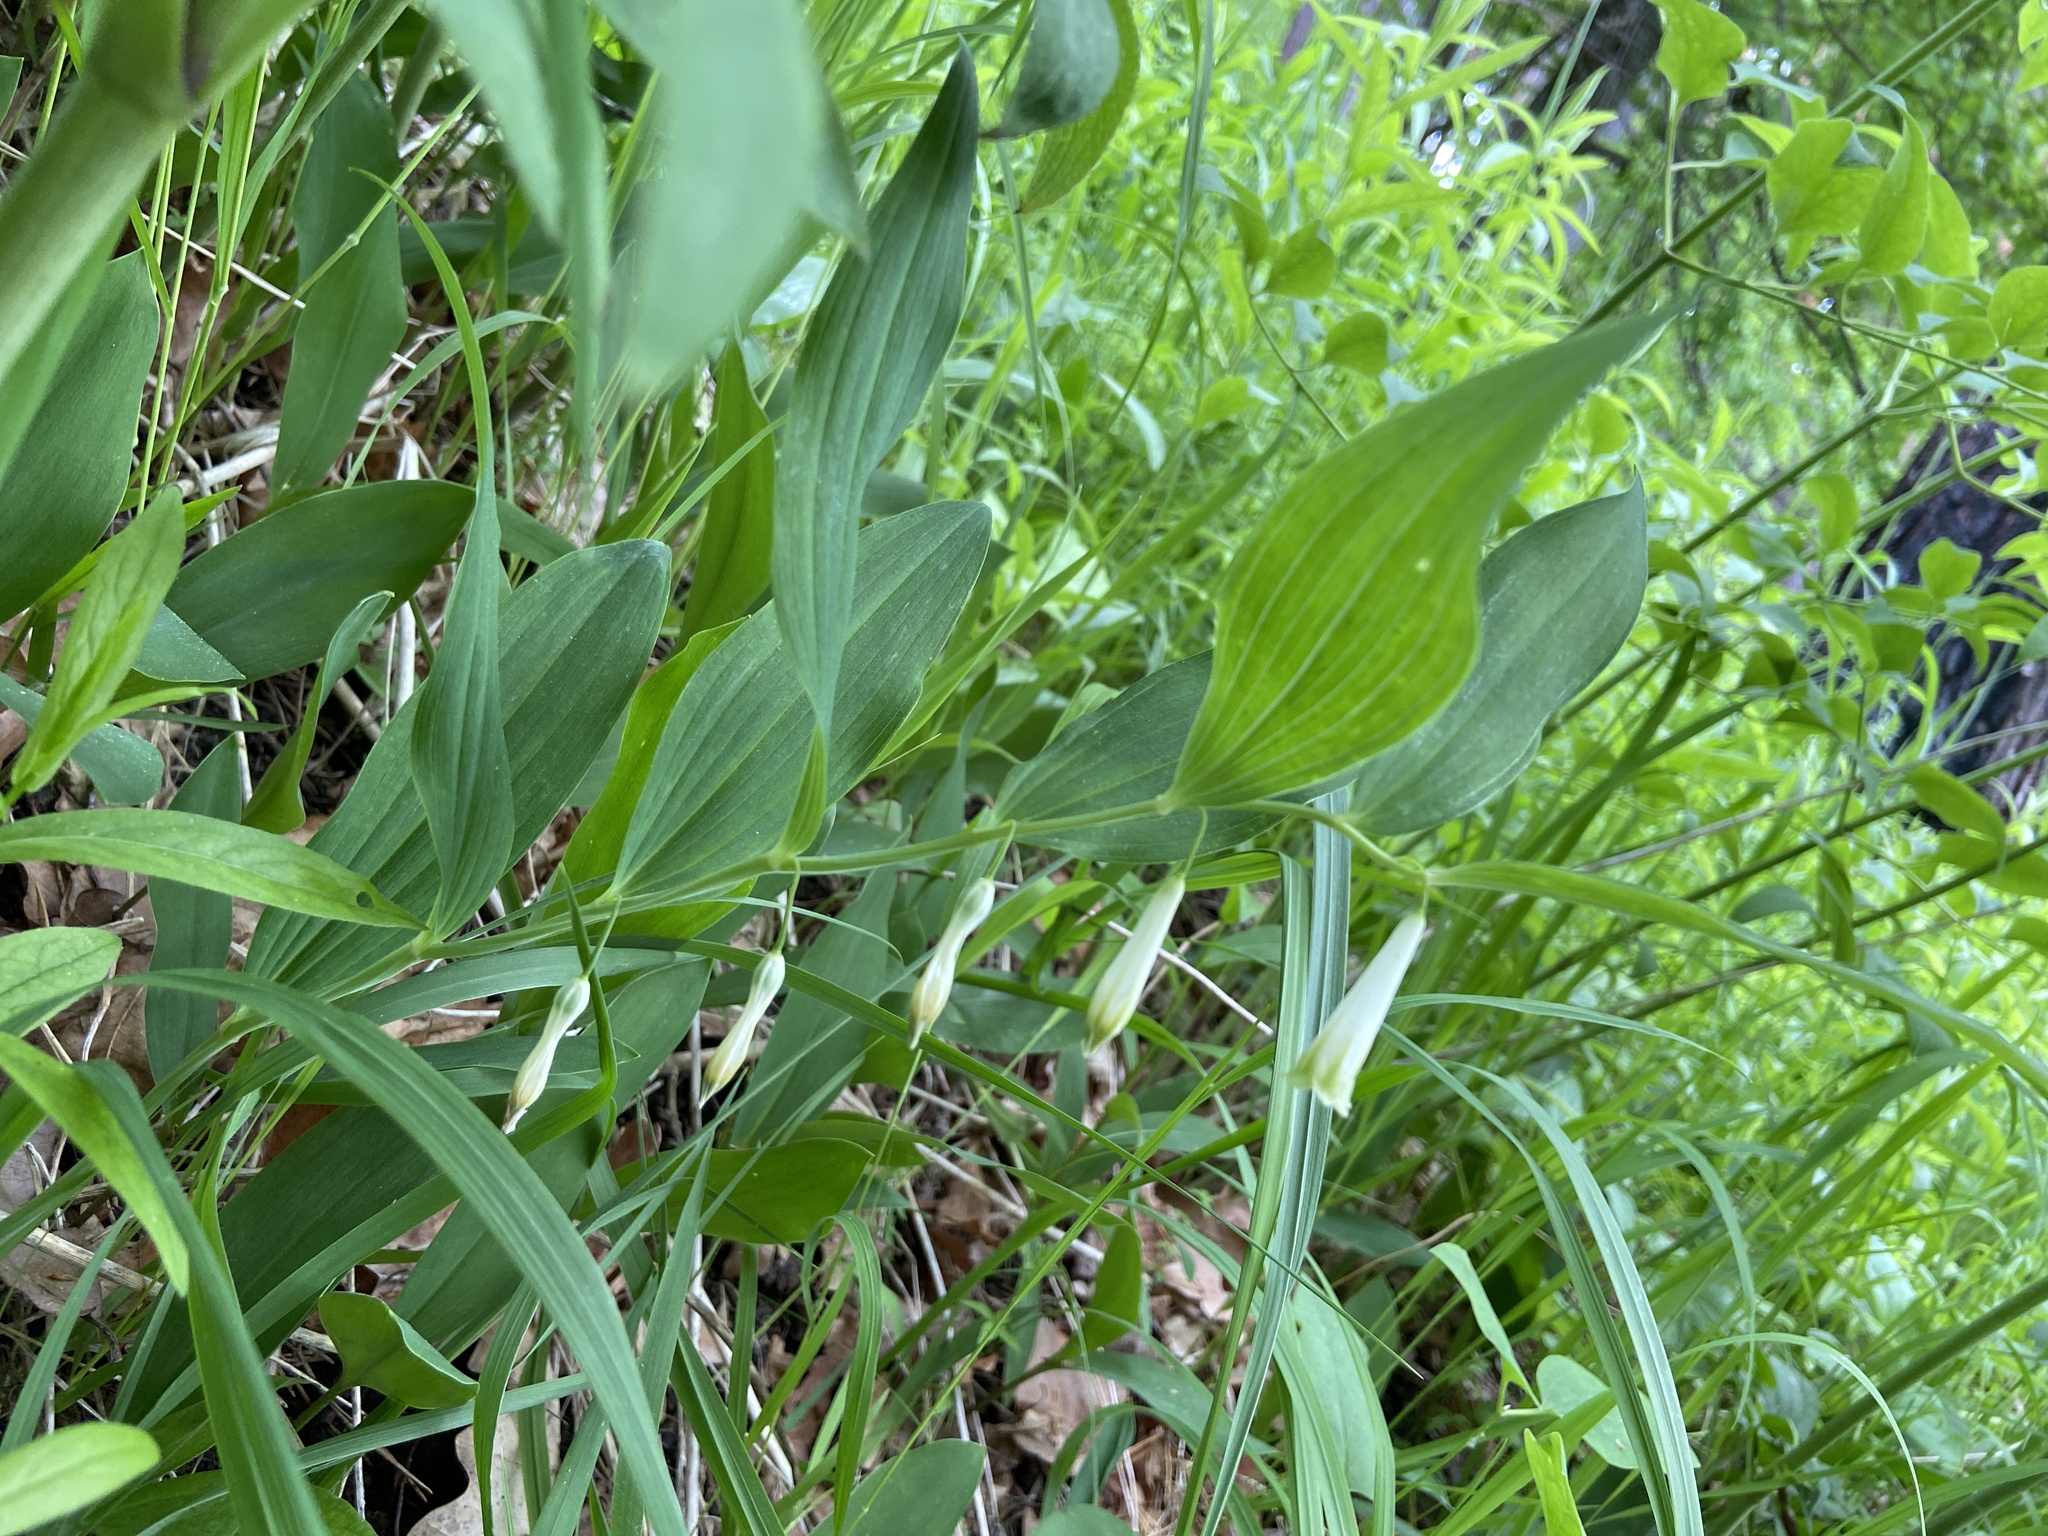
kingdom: Plantae
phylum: Tracheophyta
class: Liliopsida
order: Asparagales
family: Asparagaceae
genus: Polygonatum
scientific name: Polygonatum odoratum
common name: Angular solomon's-seal
